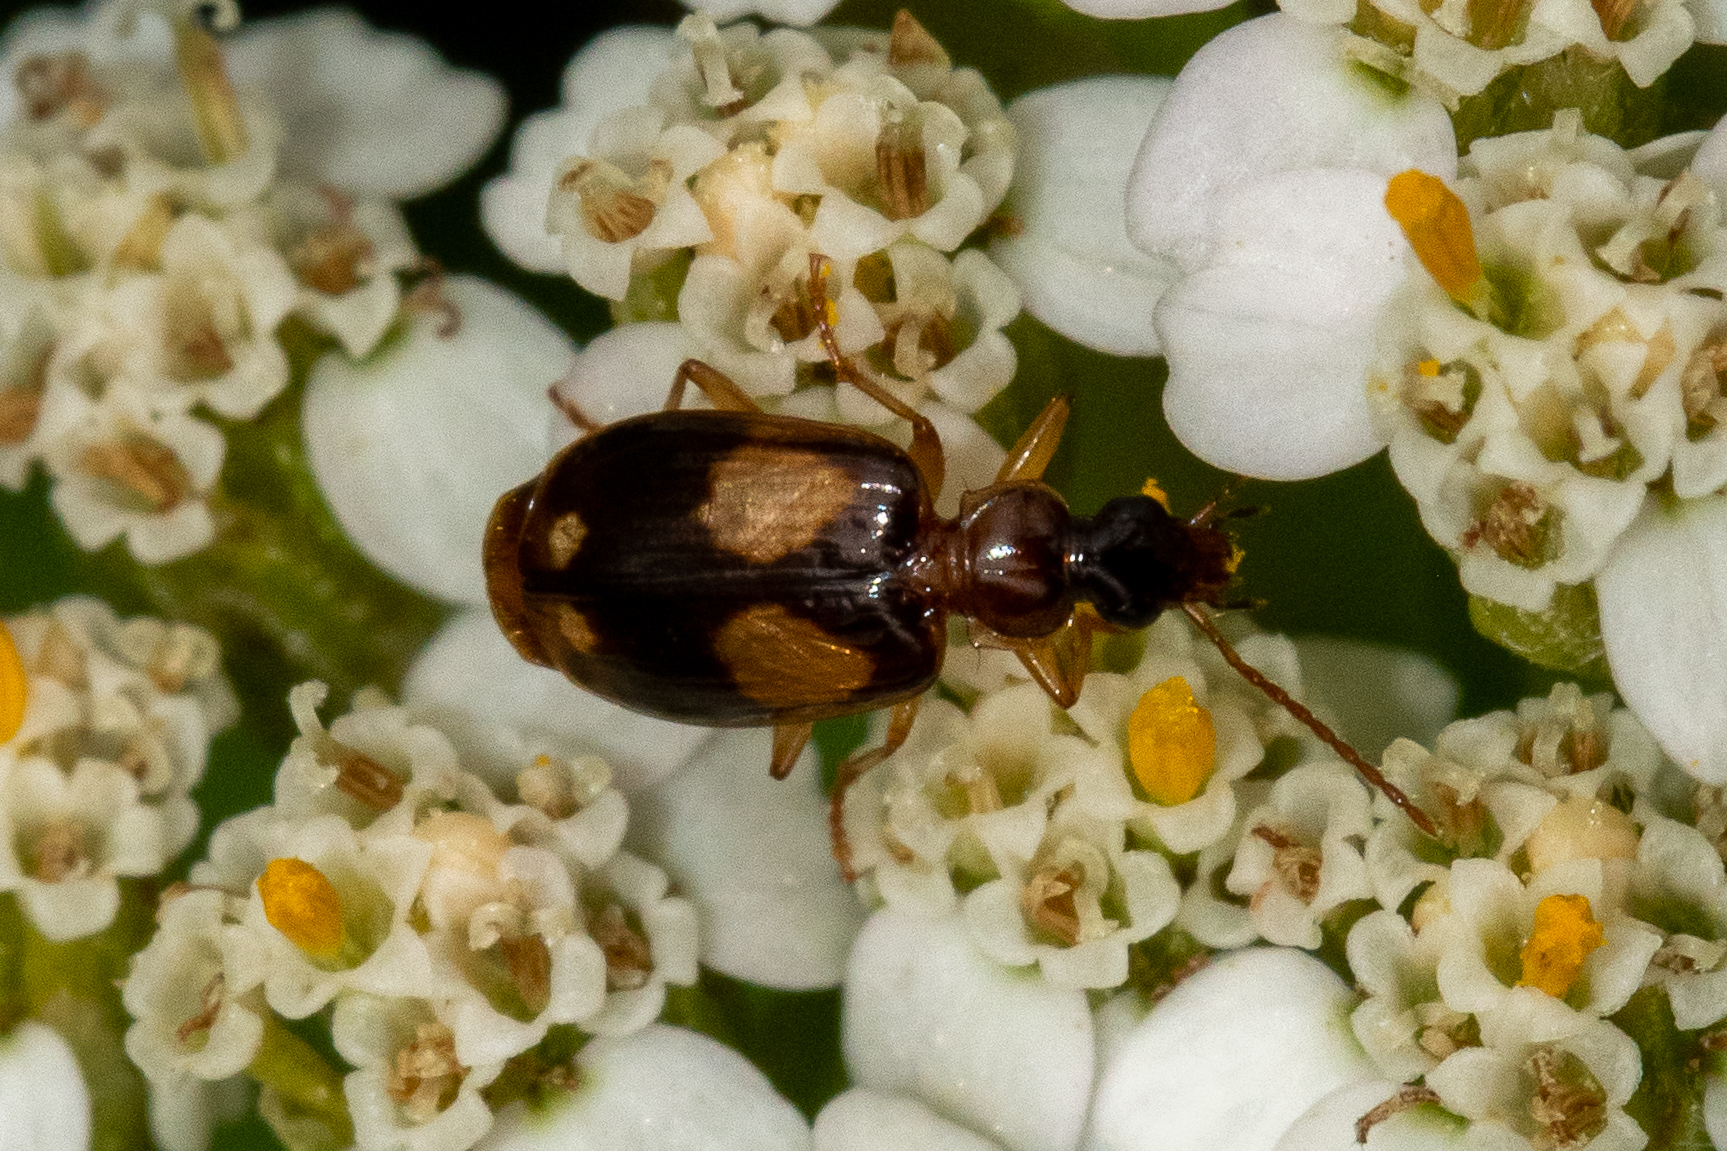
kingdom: Animalia
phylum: Arthropoda
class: Insecta
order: Coleoptera
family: Carabidae
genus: Lebia
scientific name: Lebia ornata
